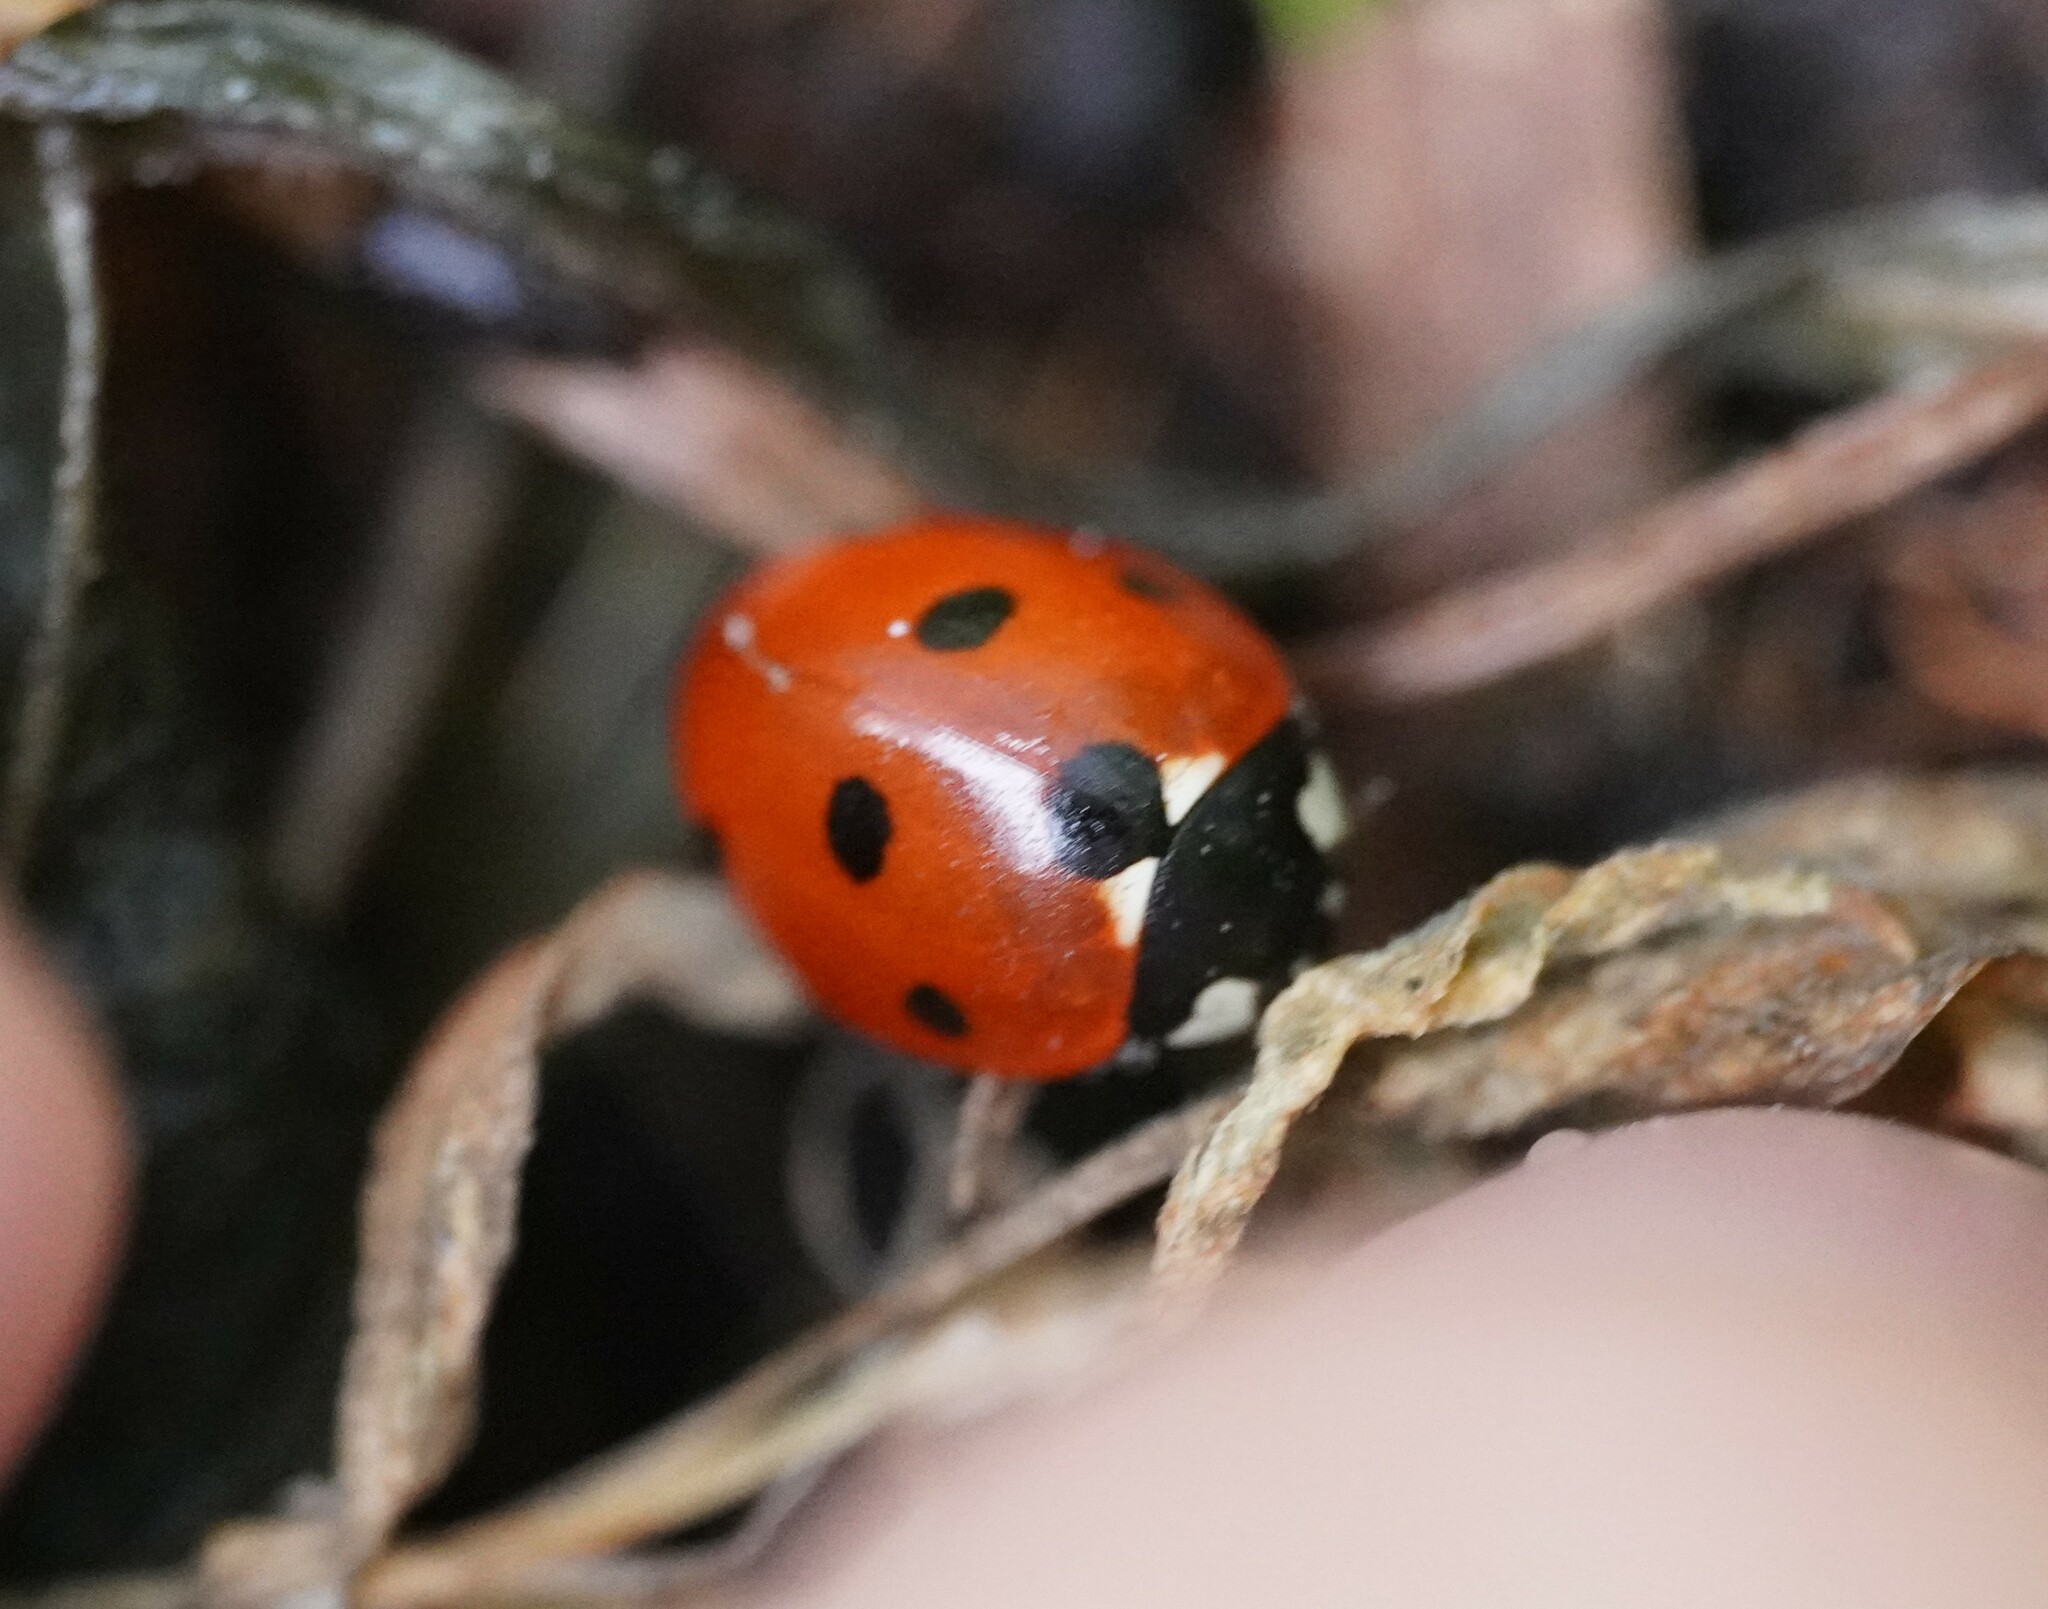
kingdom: Animalia
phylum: Arthropoda
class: Insecta
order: Coleoptera
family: Coccinellidae
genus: Coccinella
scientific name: Coccinella septempunctata
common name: Sevenspotted lady beetle
